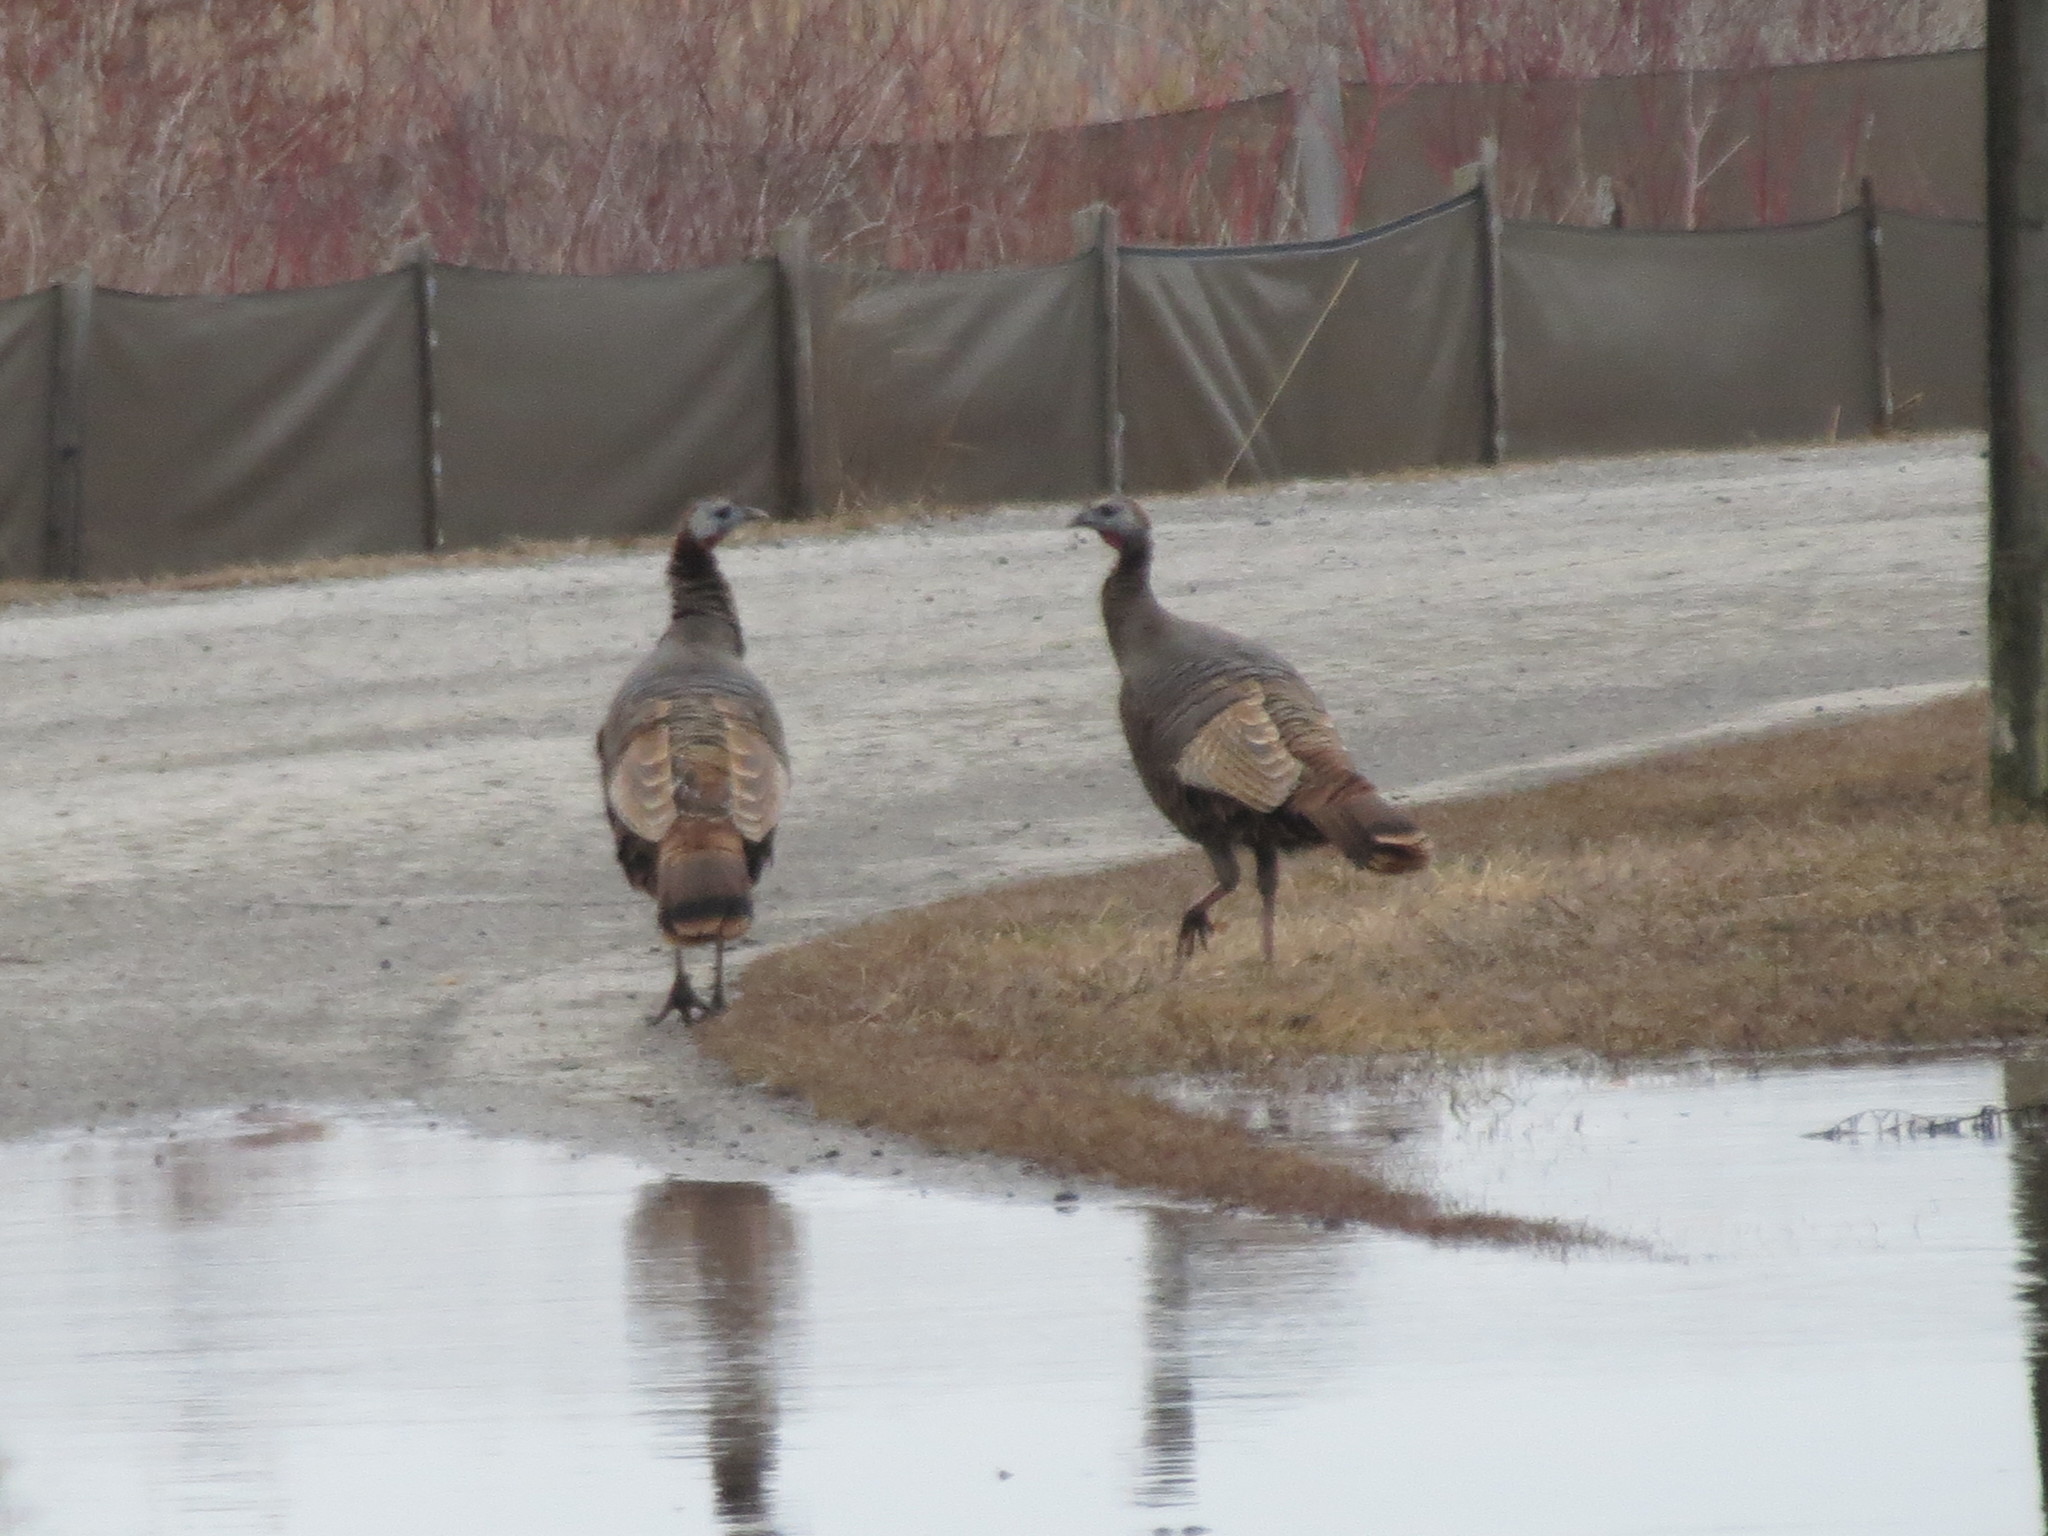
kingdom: Animalia
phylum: Chordata
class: Aves
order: Galliformes
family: Phasianidae
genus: Meleagris
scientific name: Meleagris gallopavo
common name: Wild turkey
